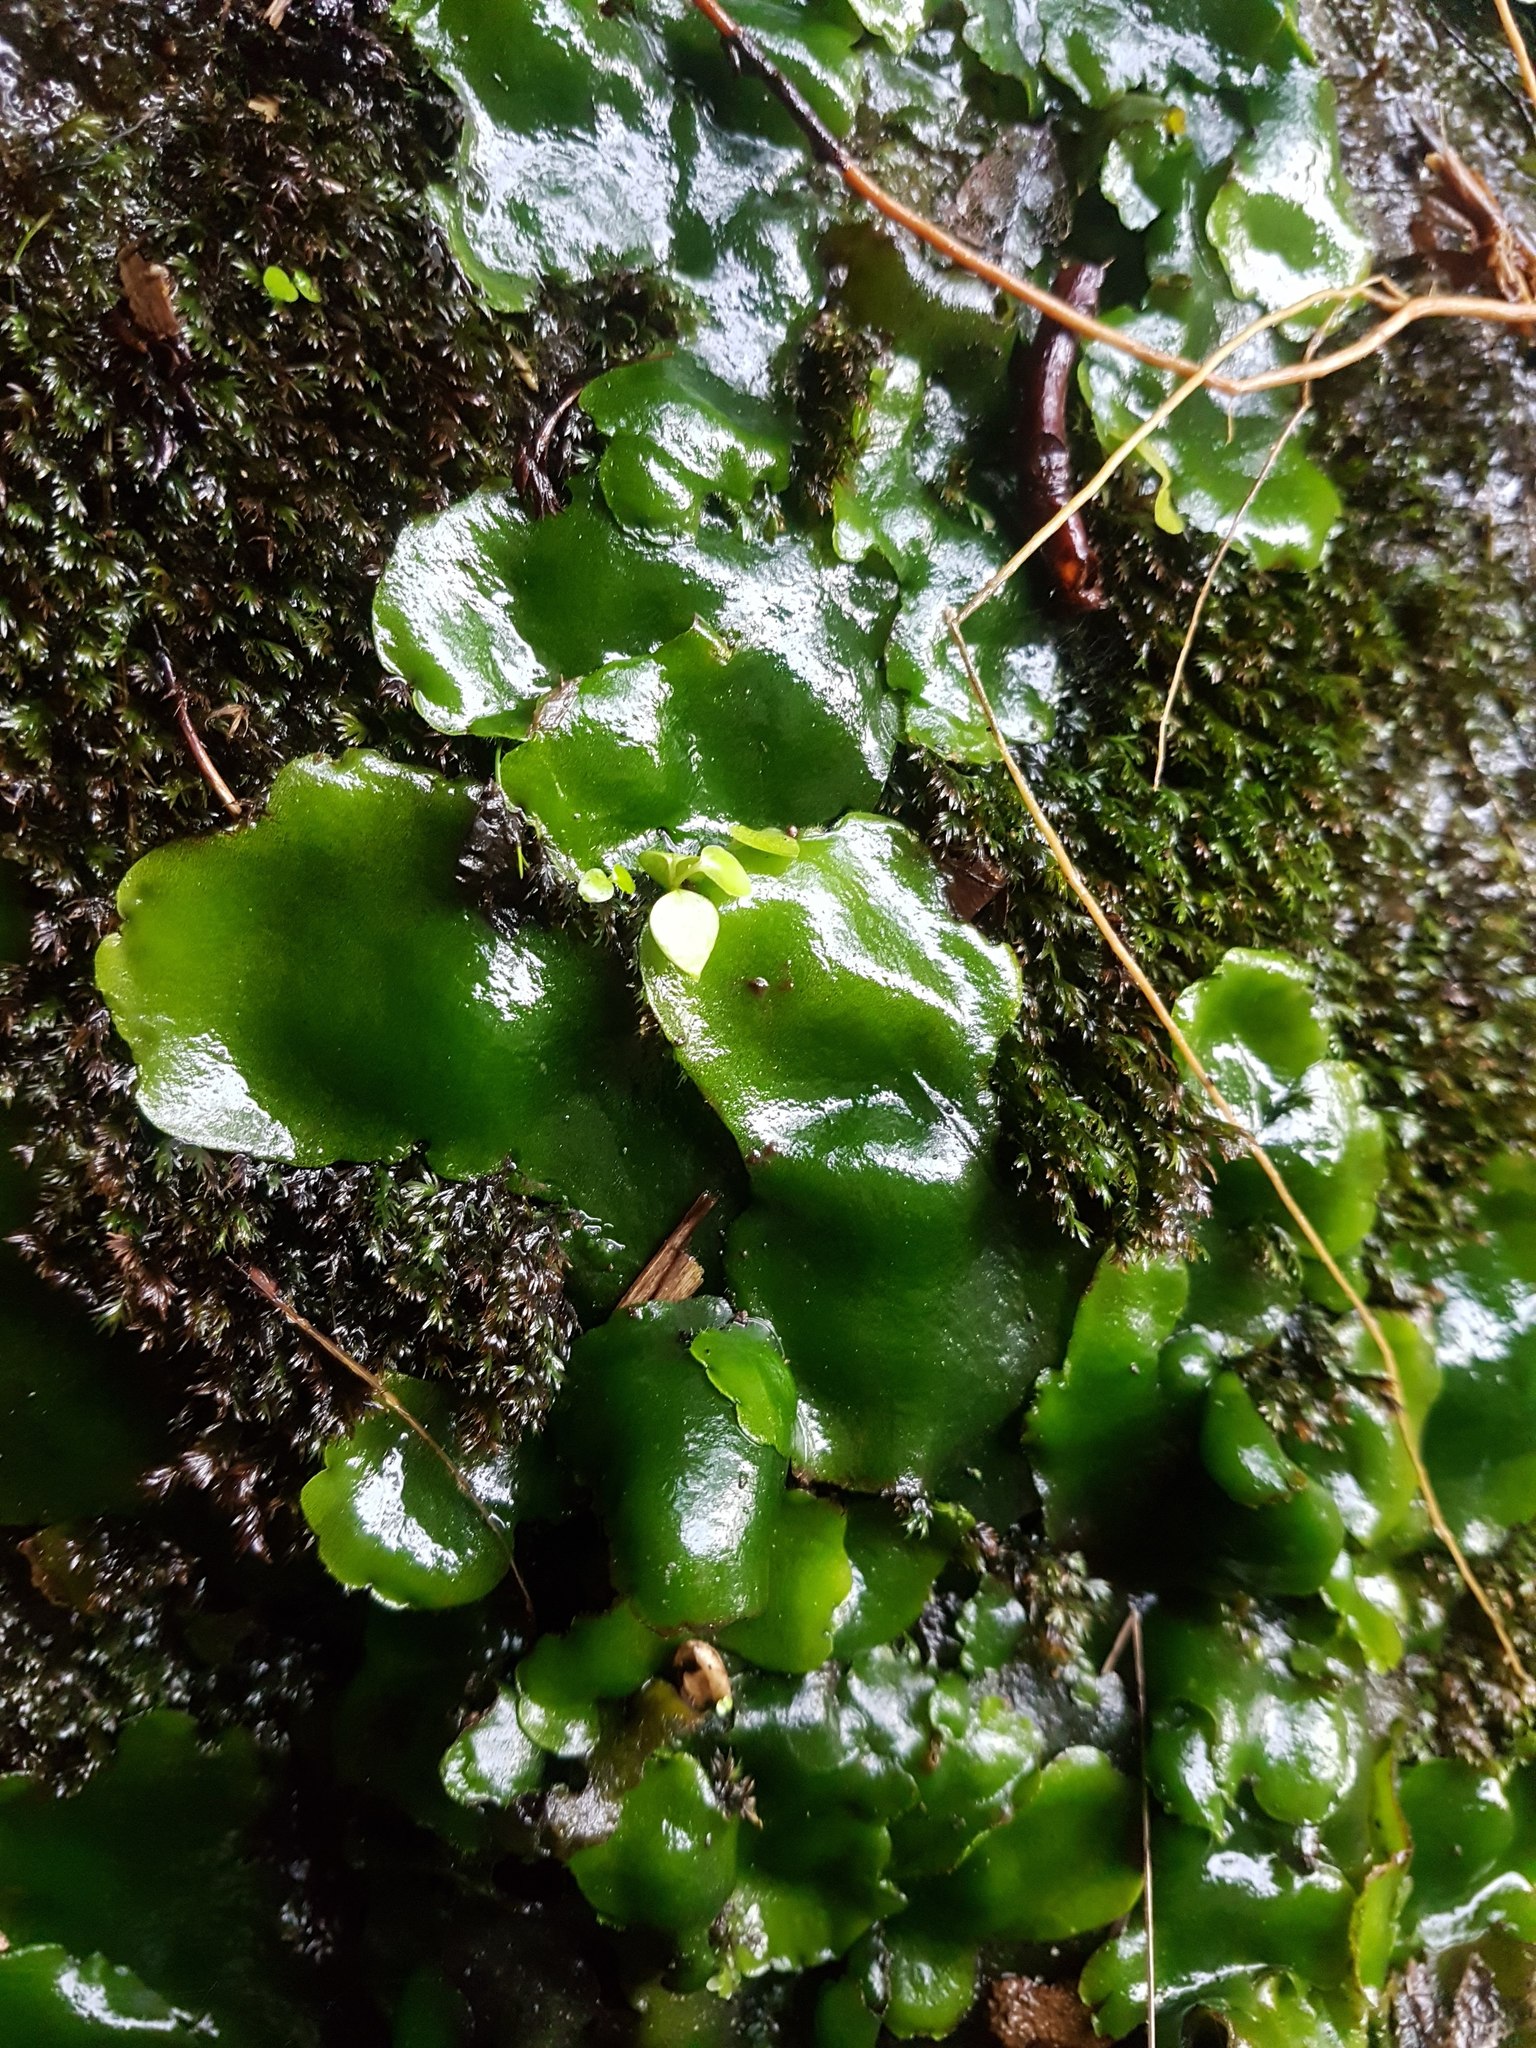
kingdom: Plantae
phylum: Marchantiophyta
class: Marchantiopsida
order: Marchantiales
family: Monocleaceae
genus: Monoclea
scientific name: Monoclea forsteri
